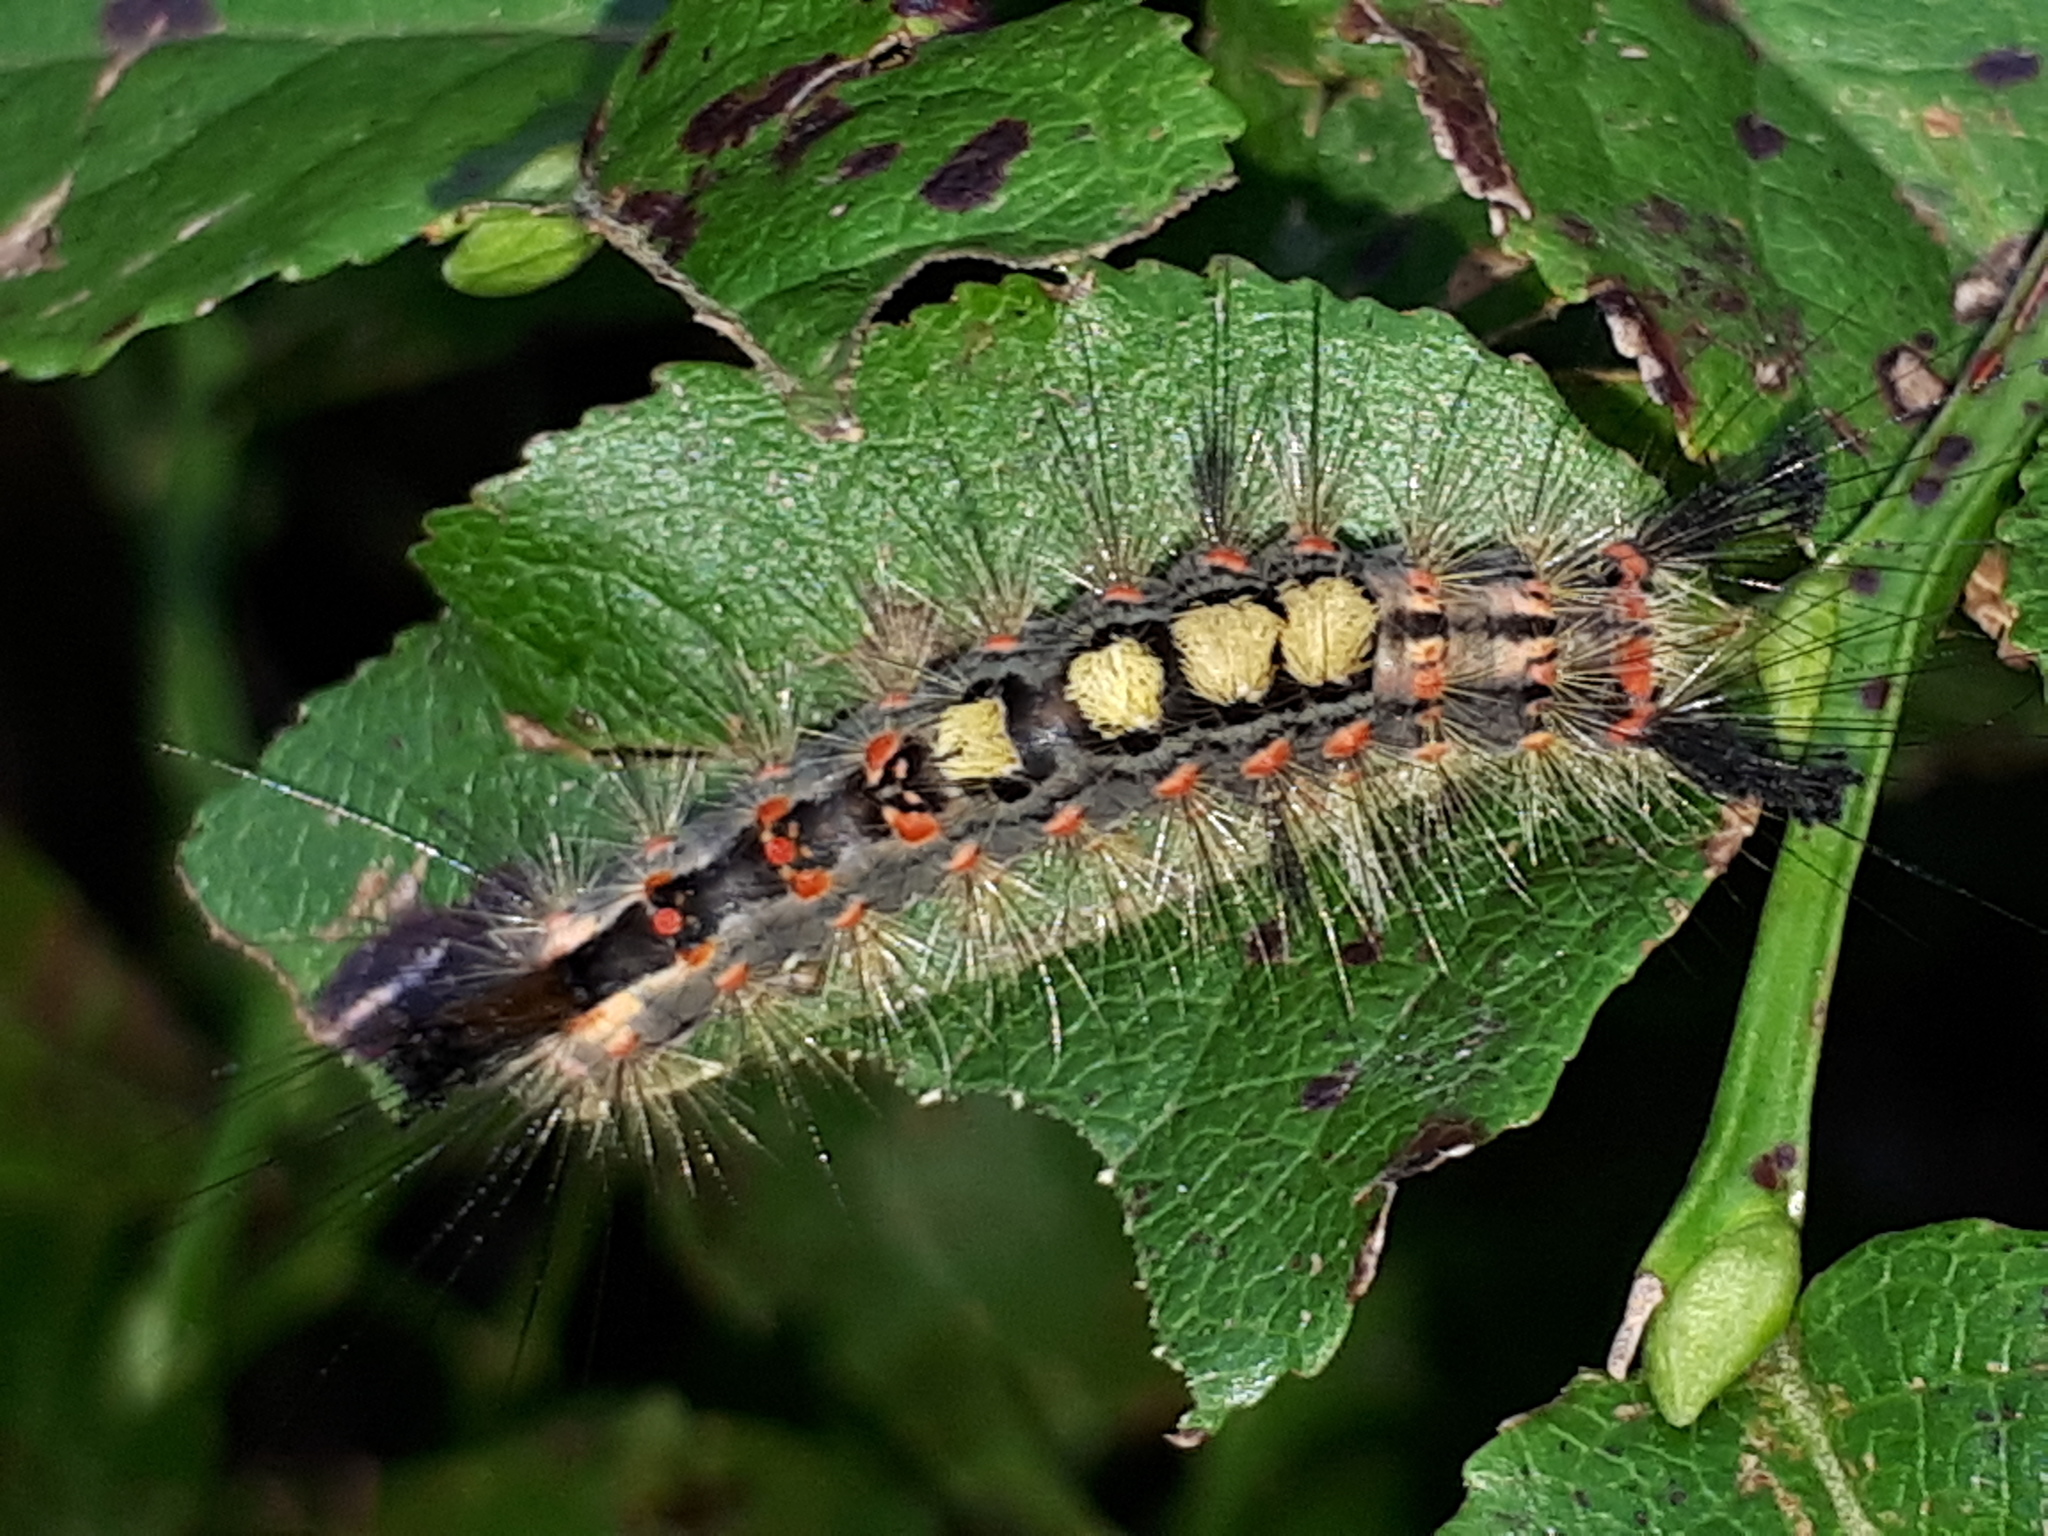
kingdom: Animalia
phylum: Arthropoda
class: Insecta
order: Lepidoptera
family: Erebidae
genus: Orgyia
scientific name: Orgyia antiqua
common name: Vapourer
